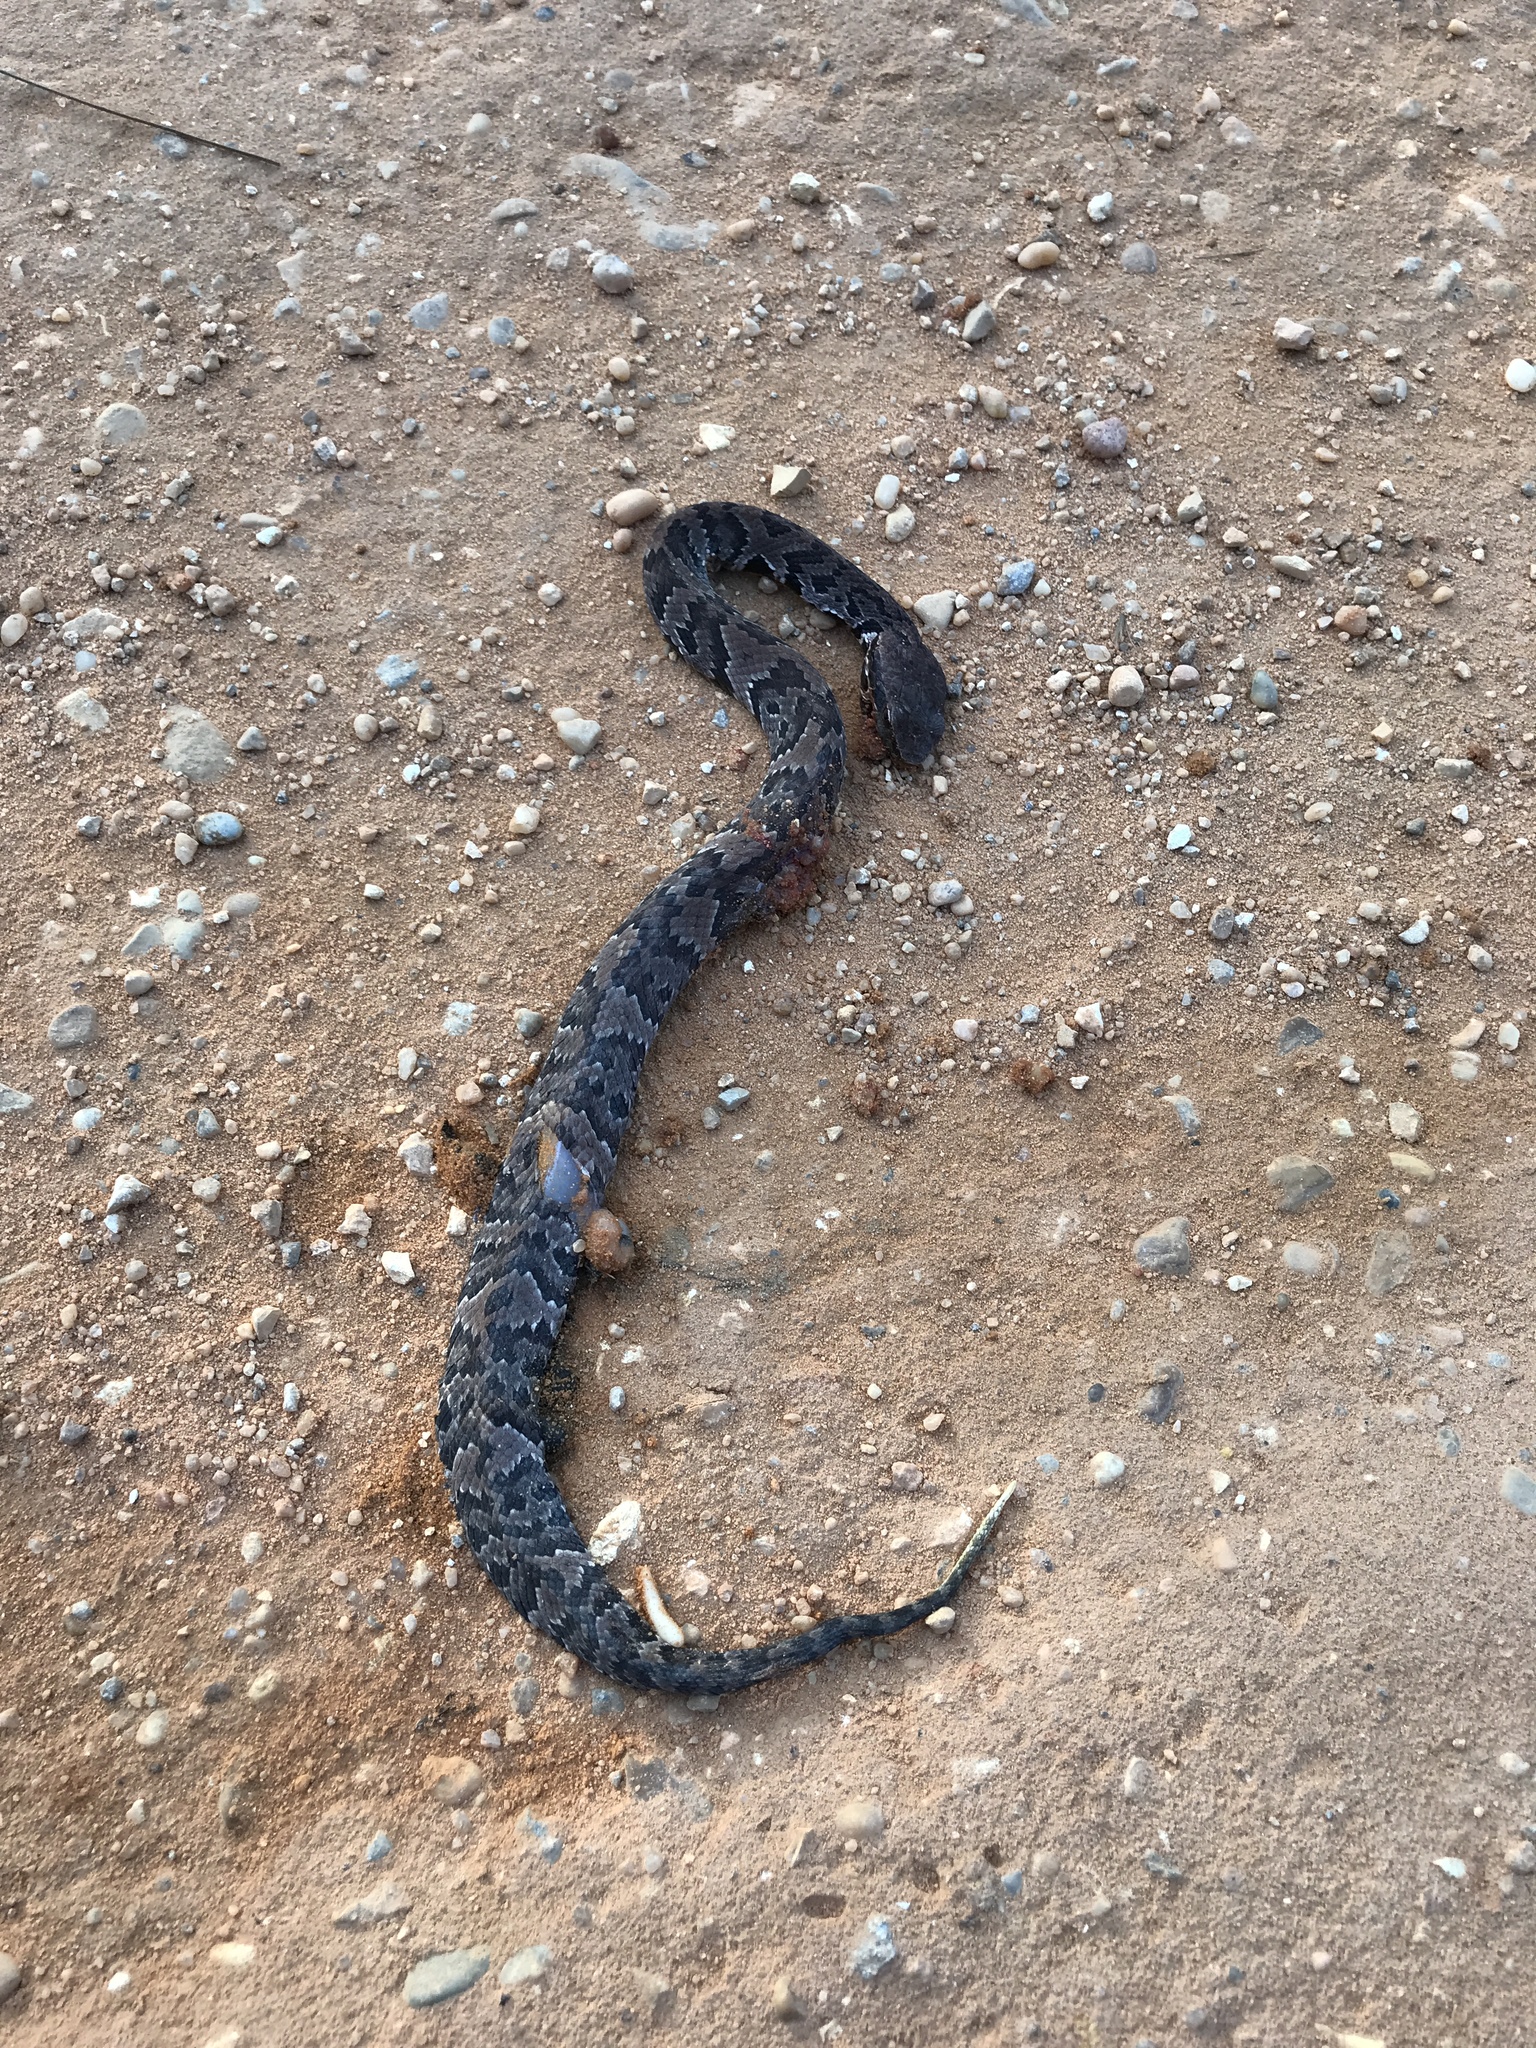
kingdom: Animalia
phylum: Chordata
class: Squamata
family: Viperidae
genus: Agkistrodon
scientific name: Agkistrodon piscivorus
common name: Cottonmouth
